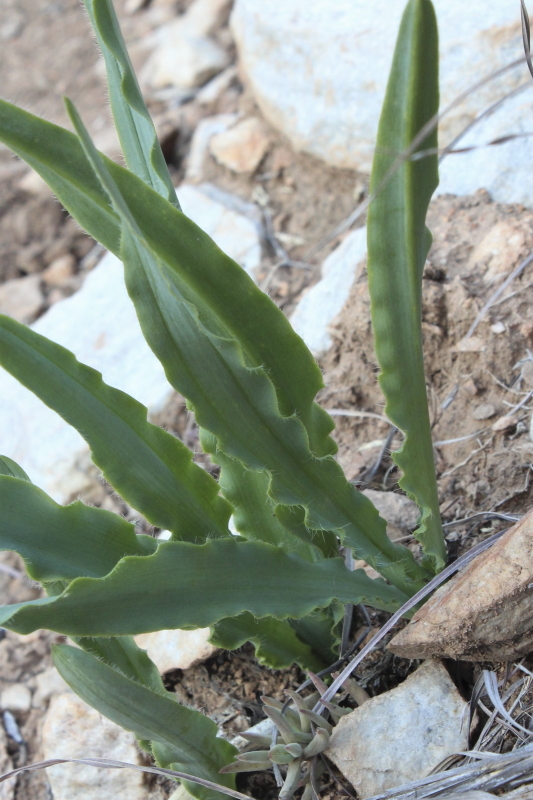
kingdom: Plantae
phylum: Tracheophyta
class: Liliopsida
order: Asparagales
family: Asparagaceae
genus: Drimia
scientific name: Drimia elata
